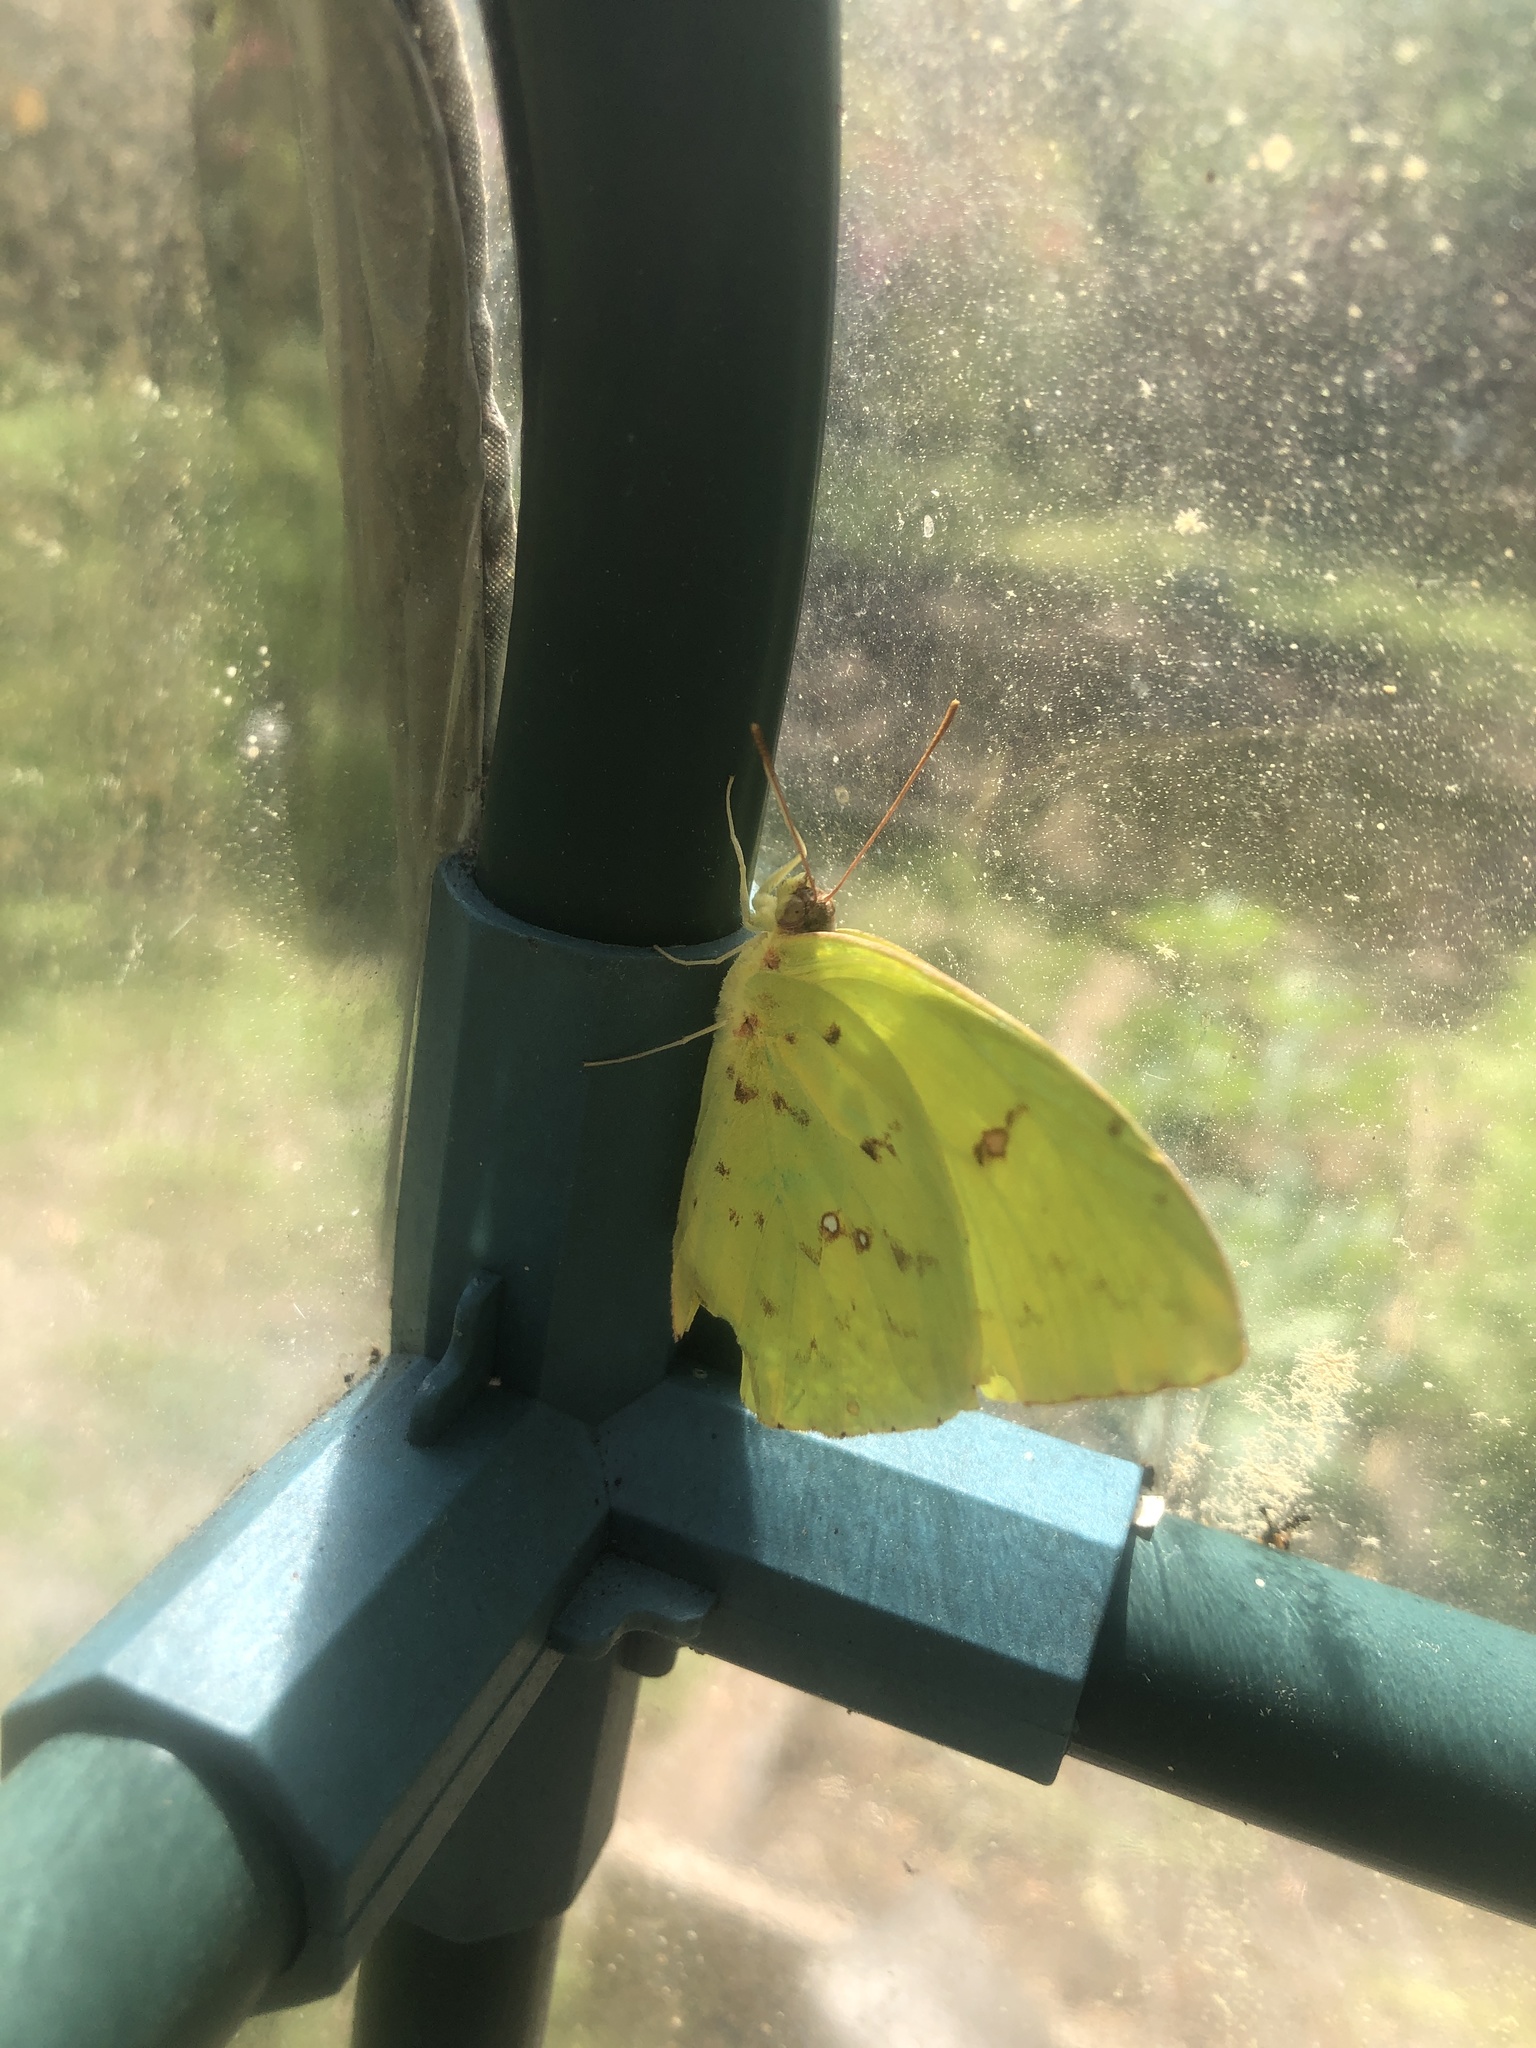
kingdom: Animalia
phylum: Arthropoda
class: Insecta
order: Lepidoptera
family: Pieridae
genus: Phoebis
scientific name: Phoebis sennae
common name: Cloudless sulphur
